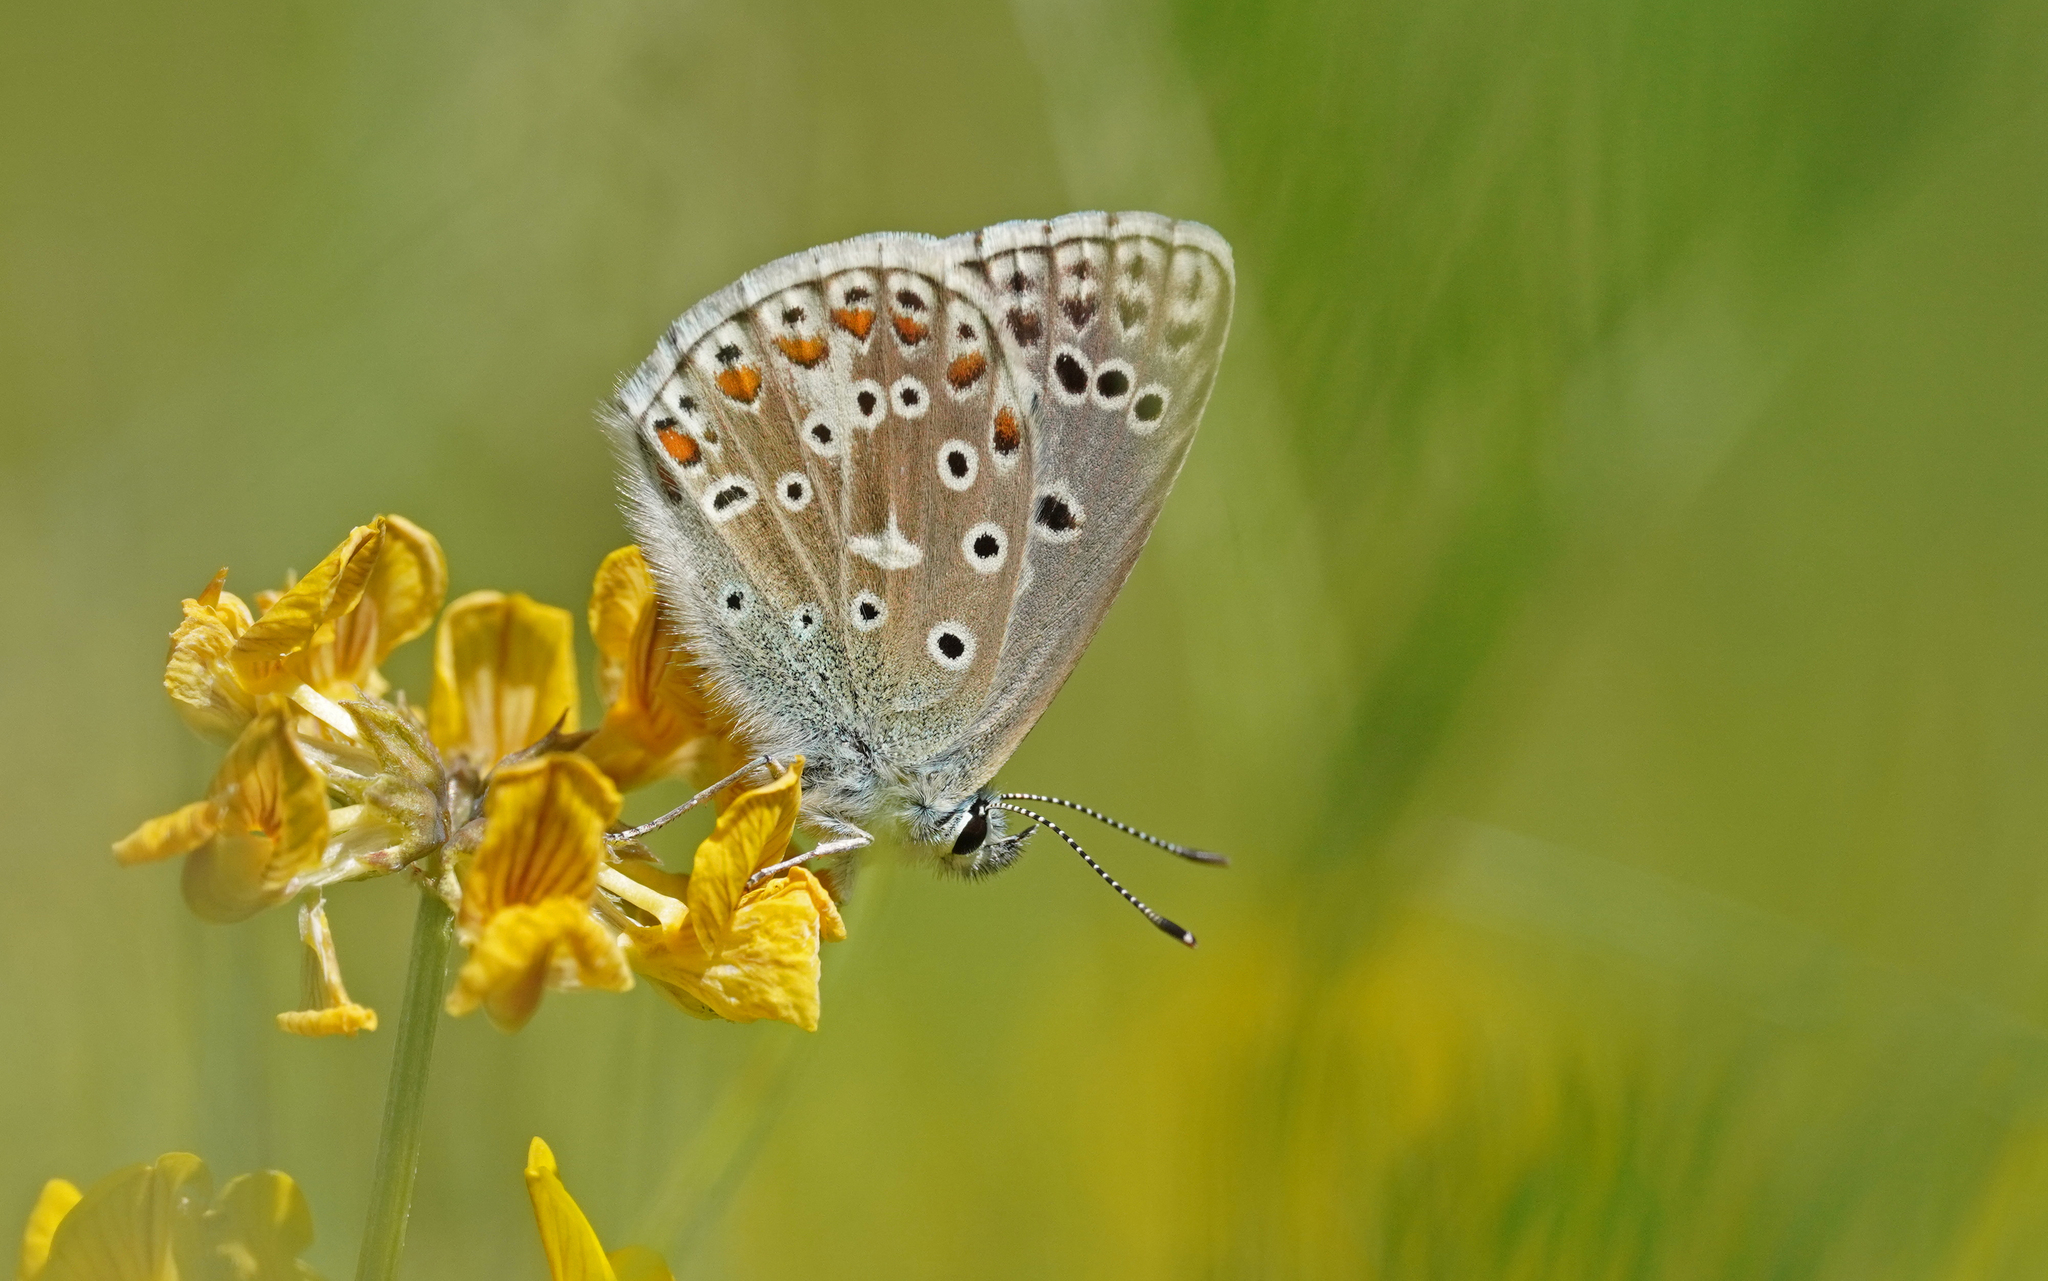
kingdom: Animalia
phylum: Arthropoda
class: Insecta
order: Lepidoptera
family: Lycaenidae
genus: Lysandra
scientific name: Lysandra bellargus
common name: Adonis blue
